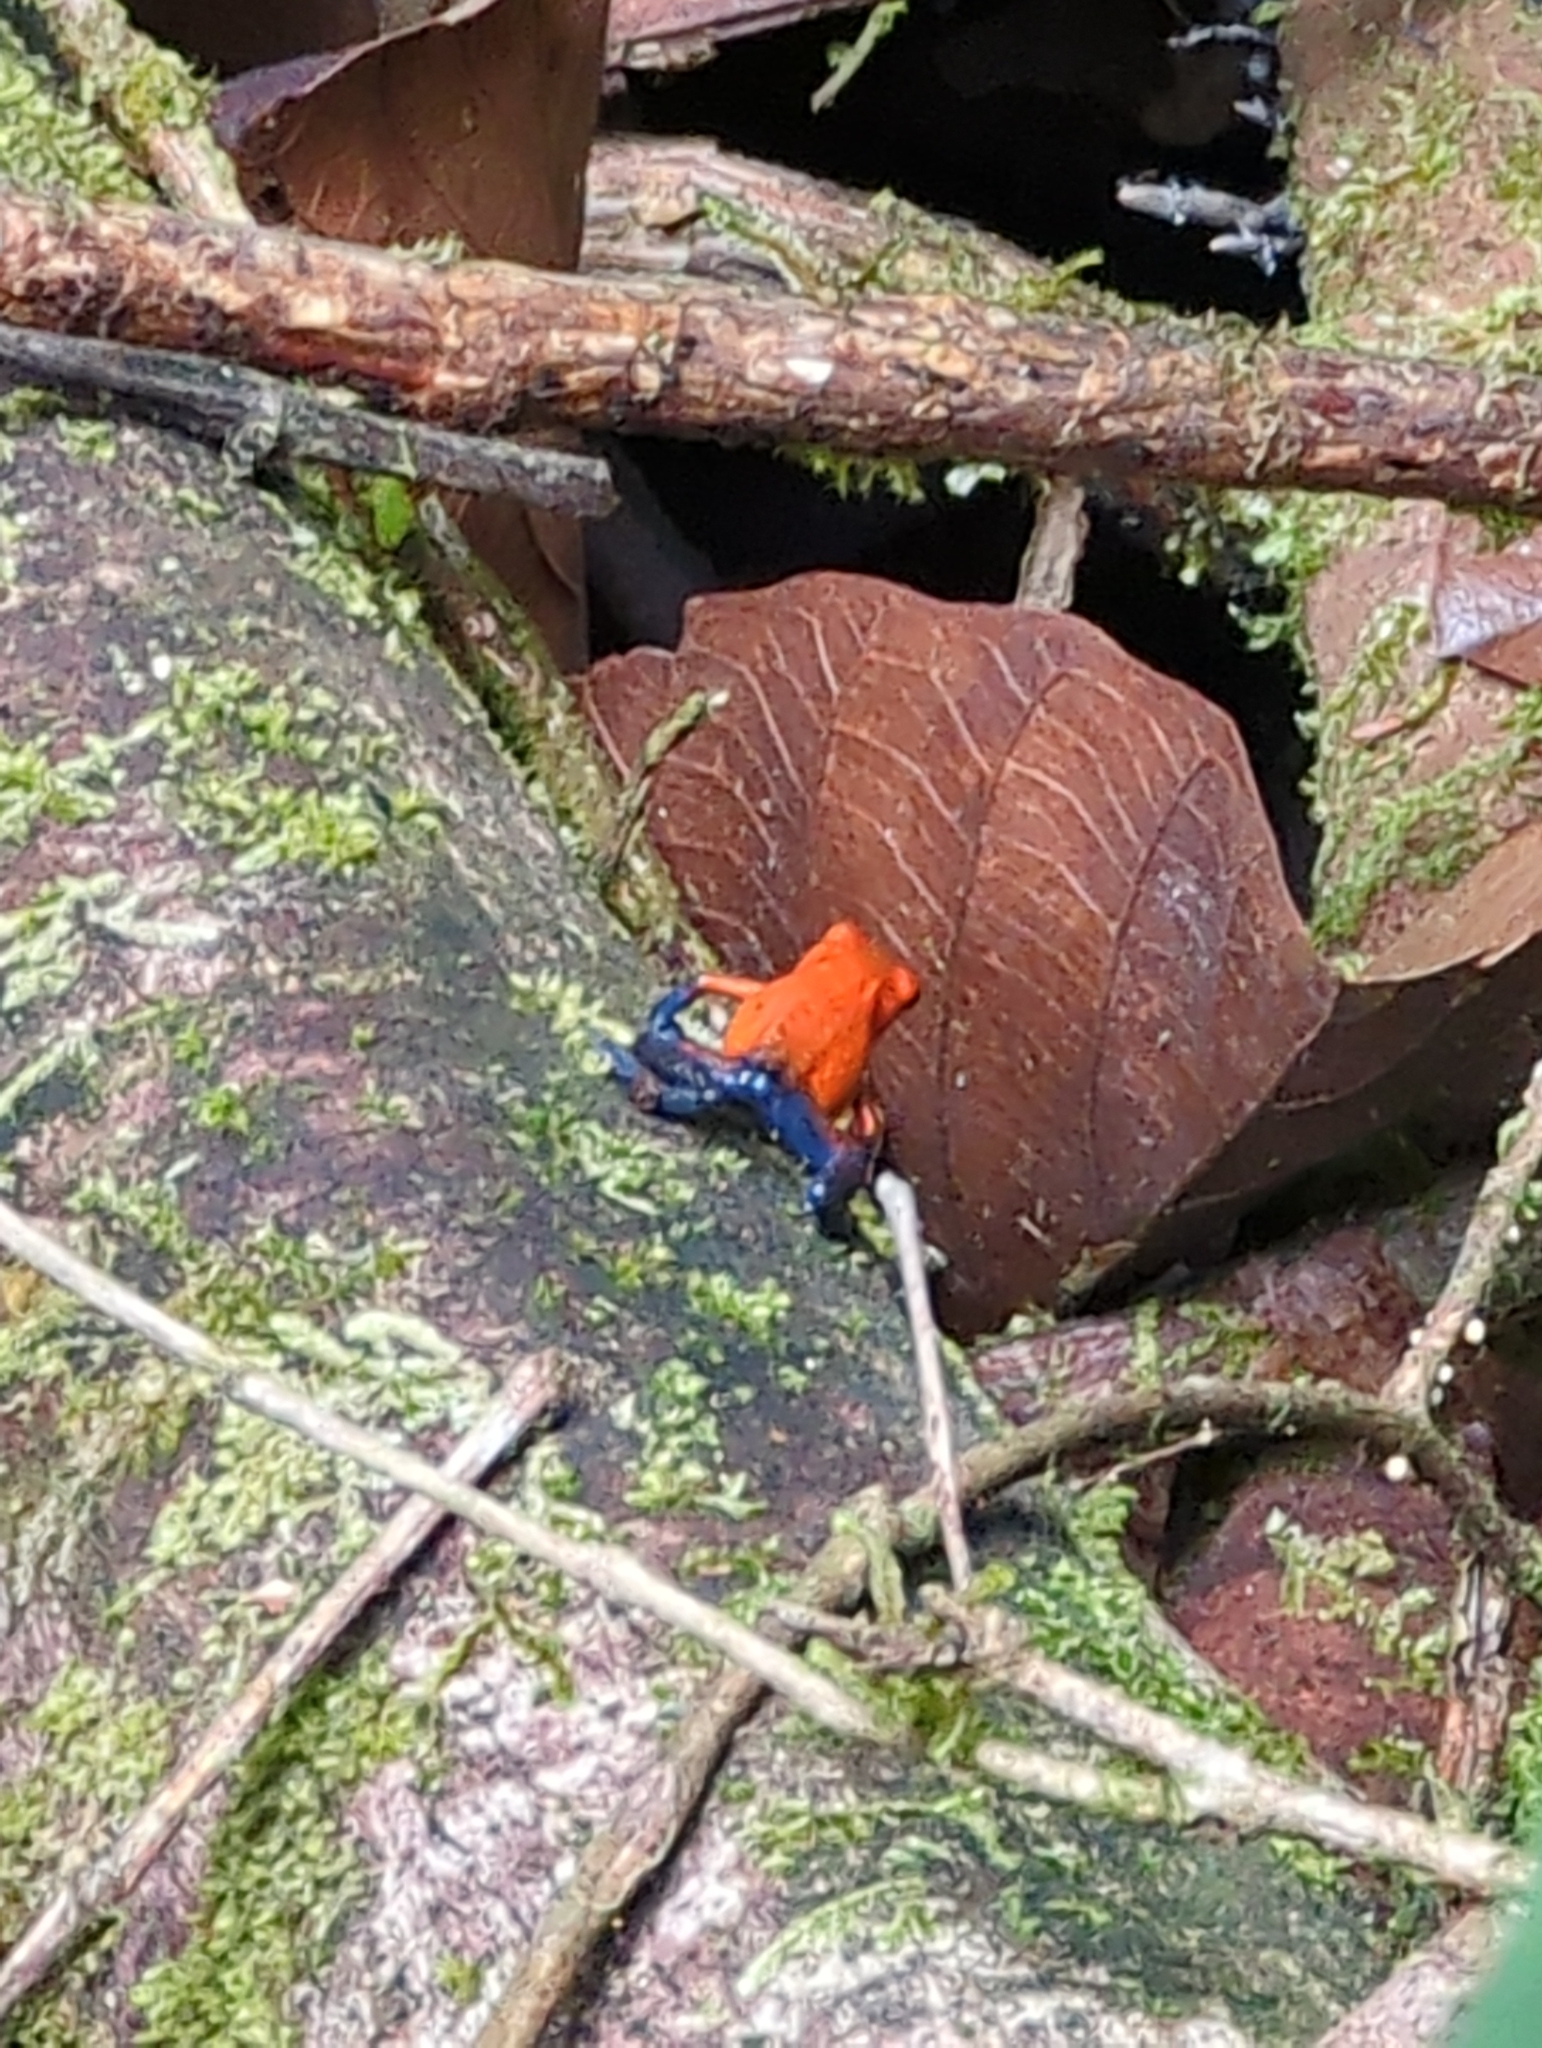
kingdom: Animalia
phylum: Chordata
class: Amphibia
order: Anura
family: Dendrobatidae
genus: Oophaga
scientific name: Oophaga pumilio
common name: Flaming poison frog
